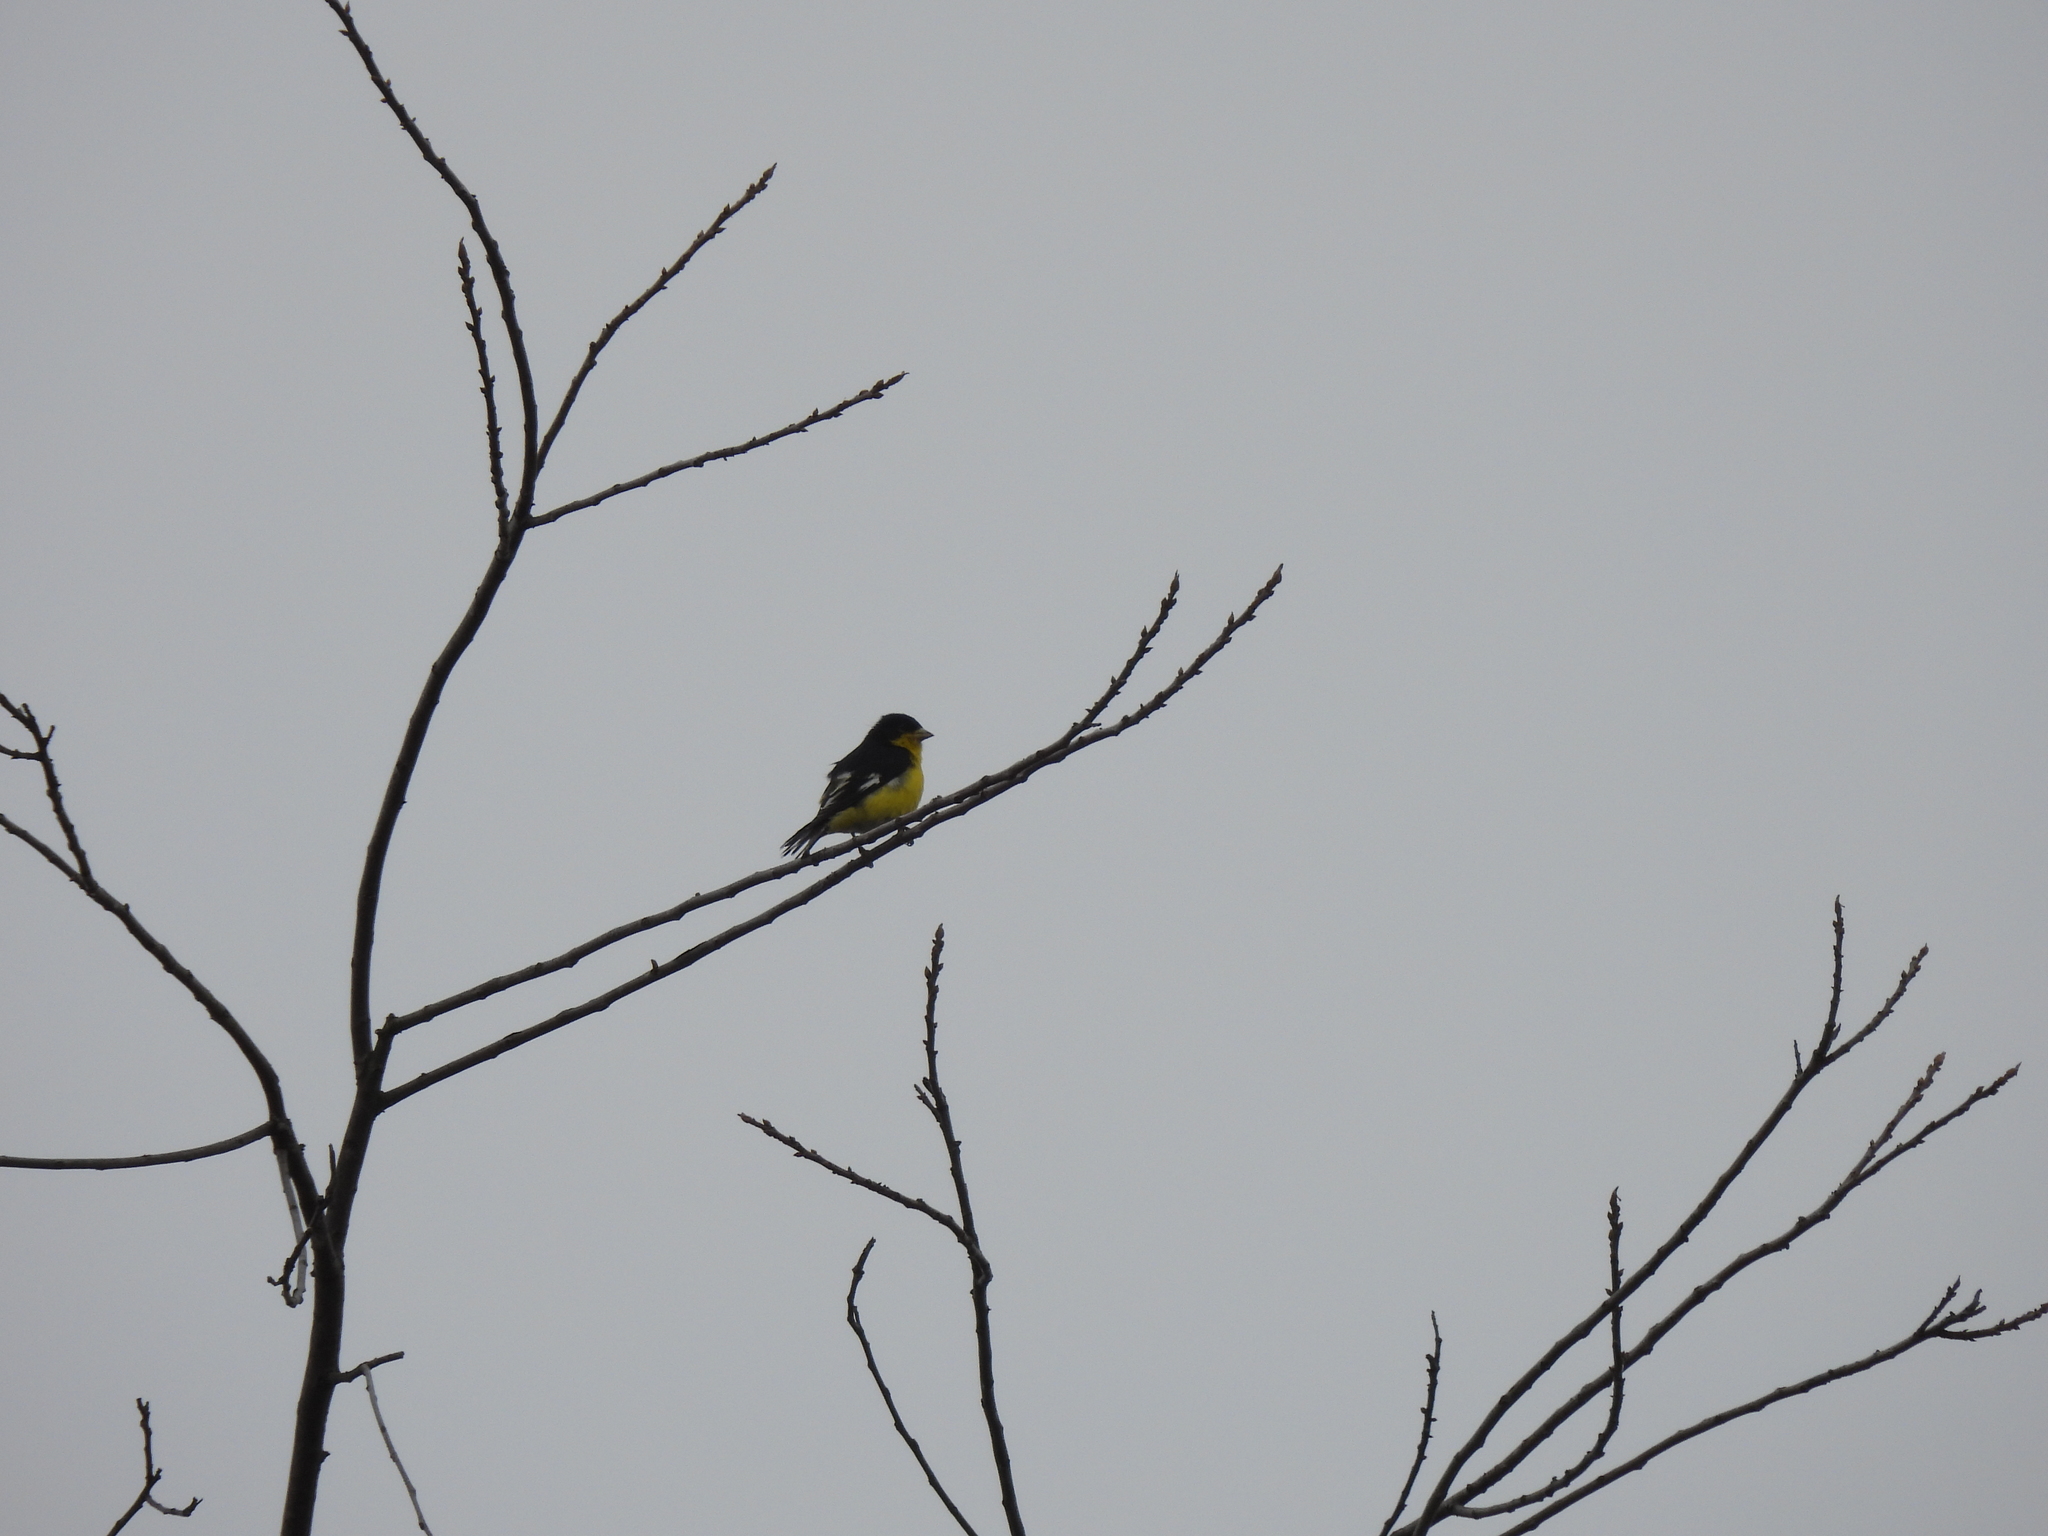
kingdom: Animalia
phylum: Chordata
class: Aves
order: Passeriformes
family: Fringillidae
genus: Spinus
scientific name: Spinus psaltria
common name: Lesser goldfinch
